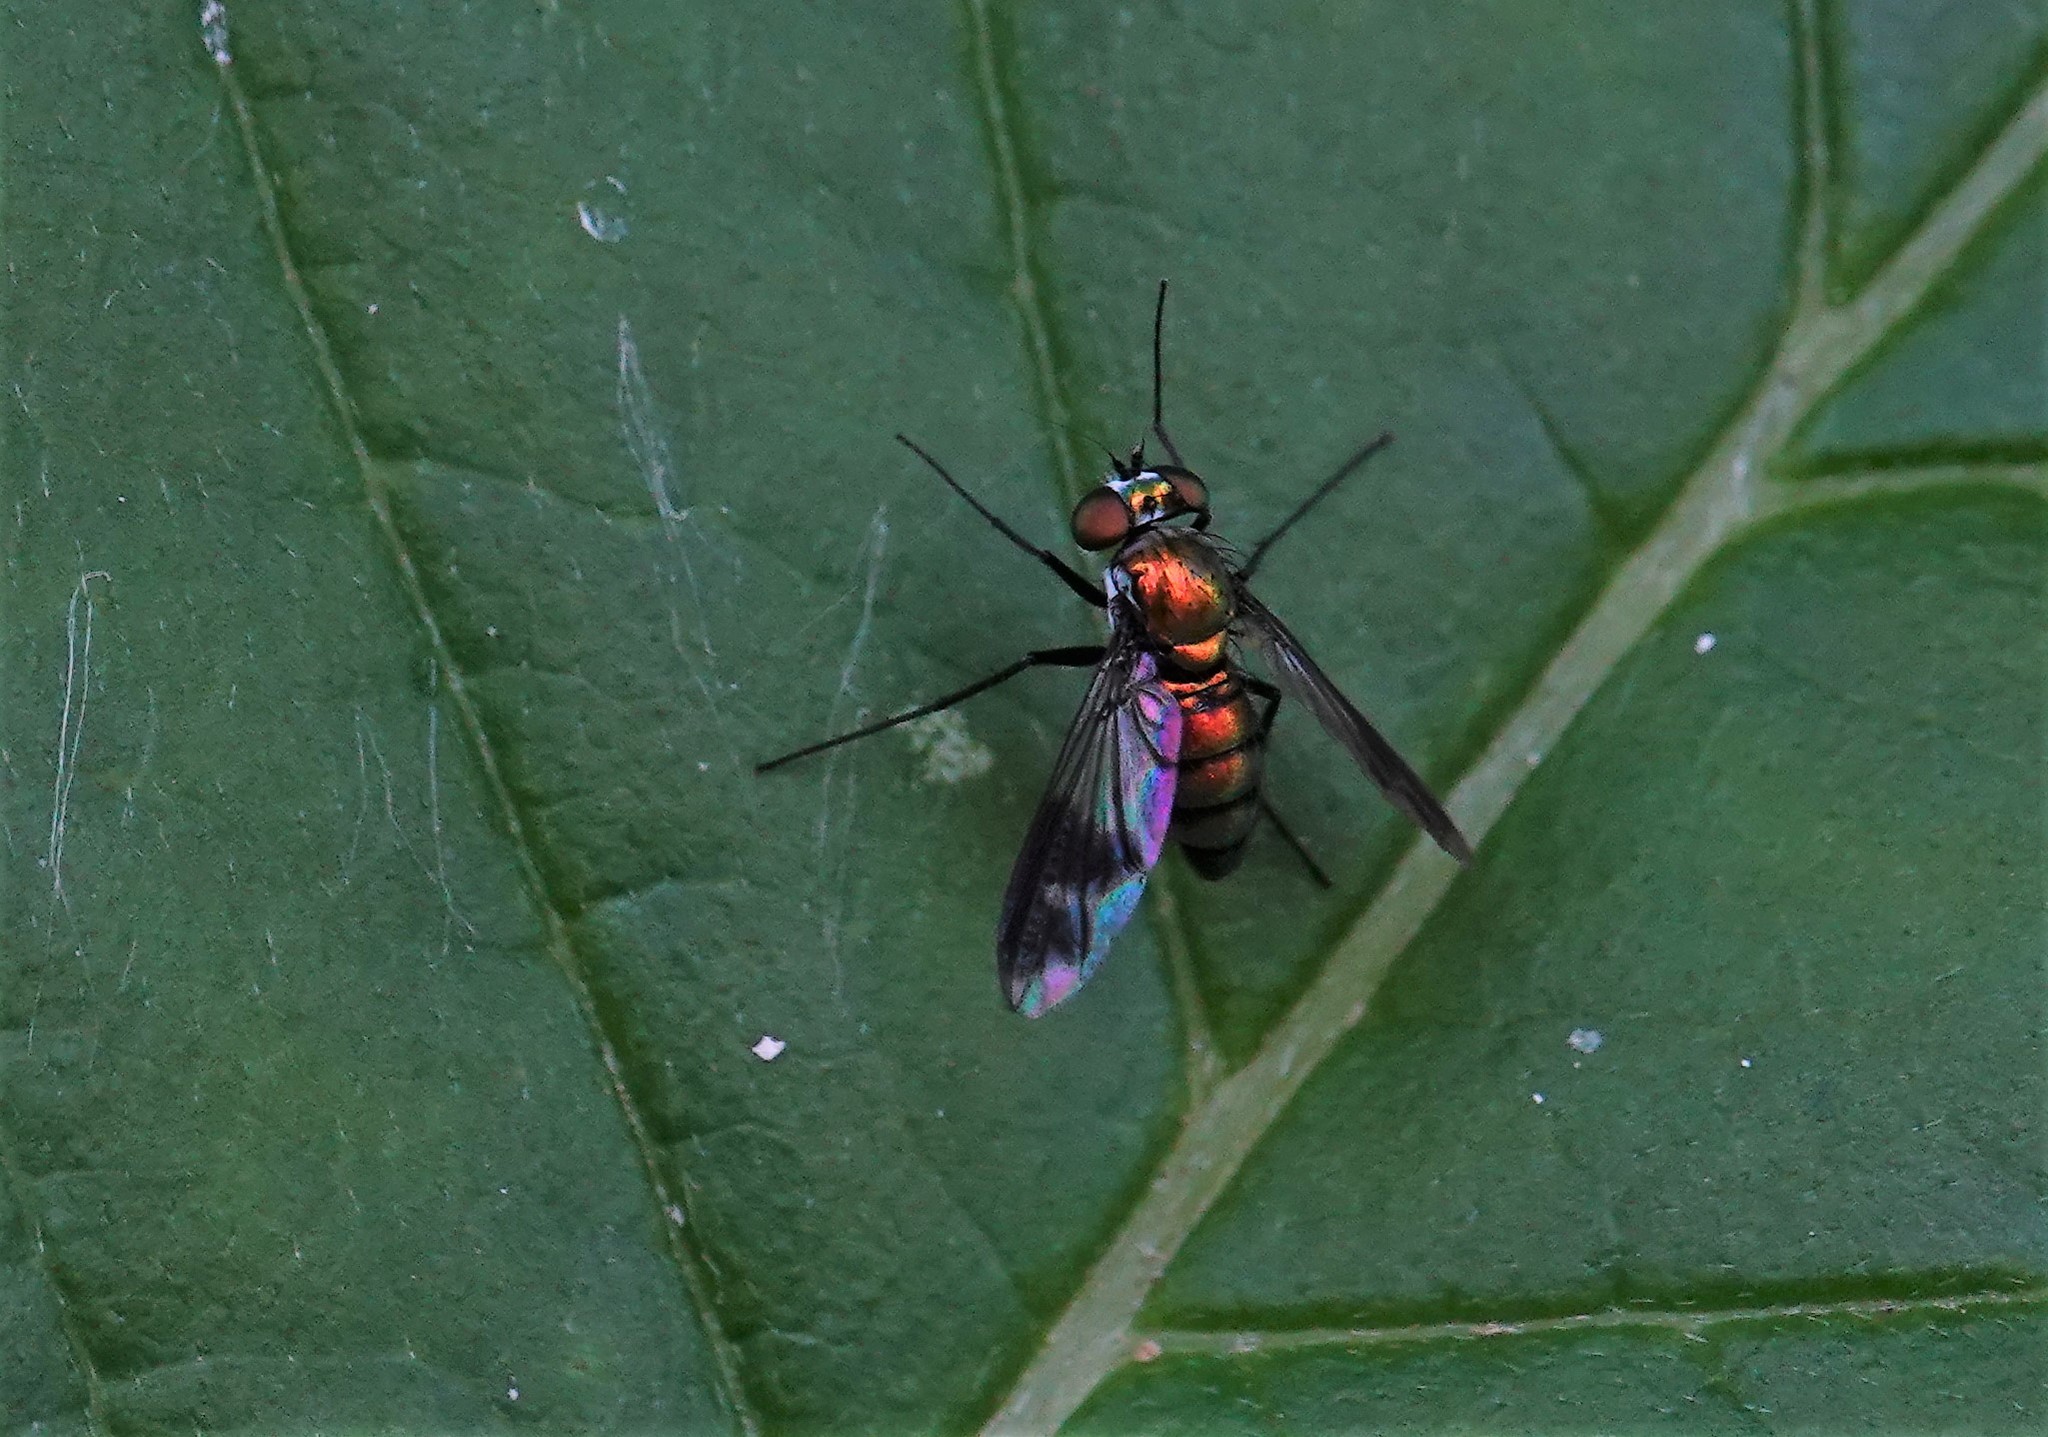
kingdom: Animalia
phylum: Arthropoda
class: Insecta
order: Diptera
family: Dolichopodidae
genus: Condylostylus
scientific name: Condylostylus patibulatus
